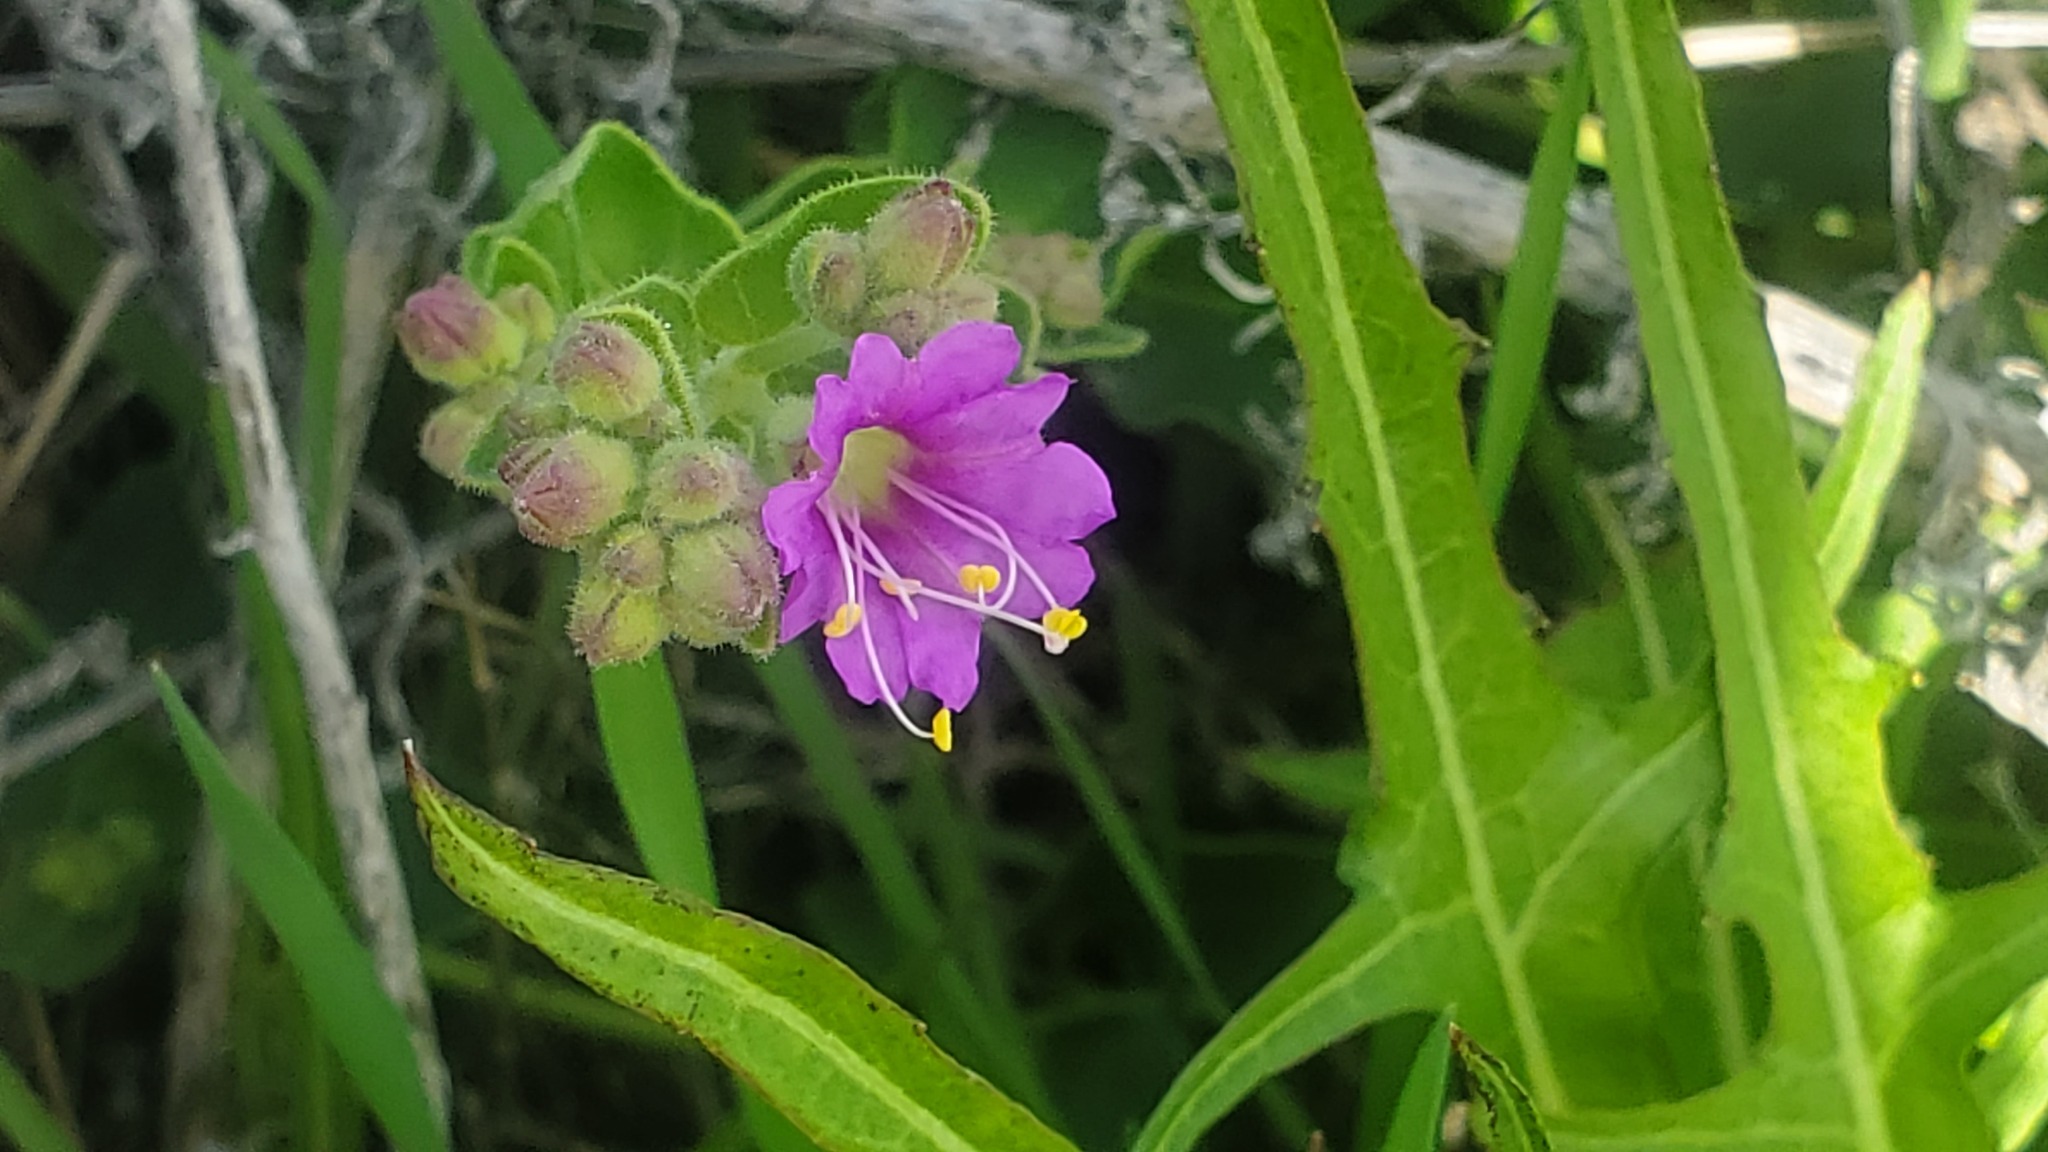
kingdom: Plantae
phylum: Tracheophyta
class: Magnoliopsida
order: Caryophyllales
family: Nyctaginaceae
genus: Mirabilis
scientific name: Mirabilis laevis
